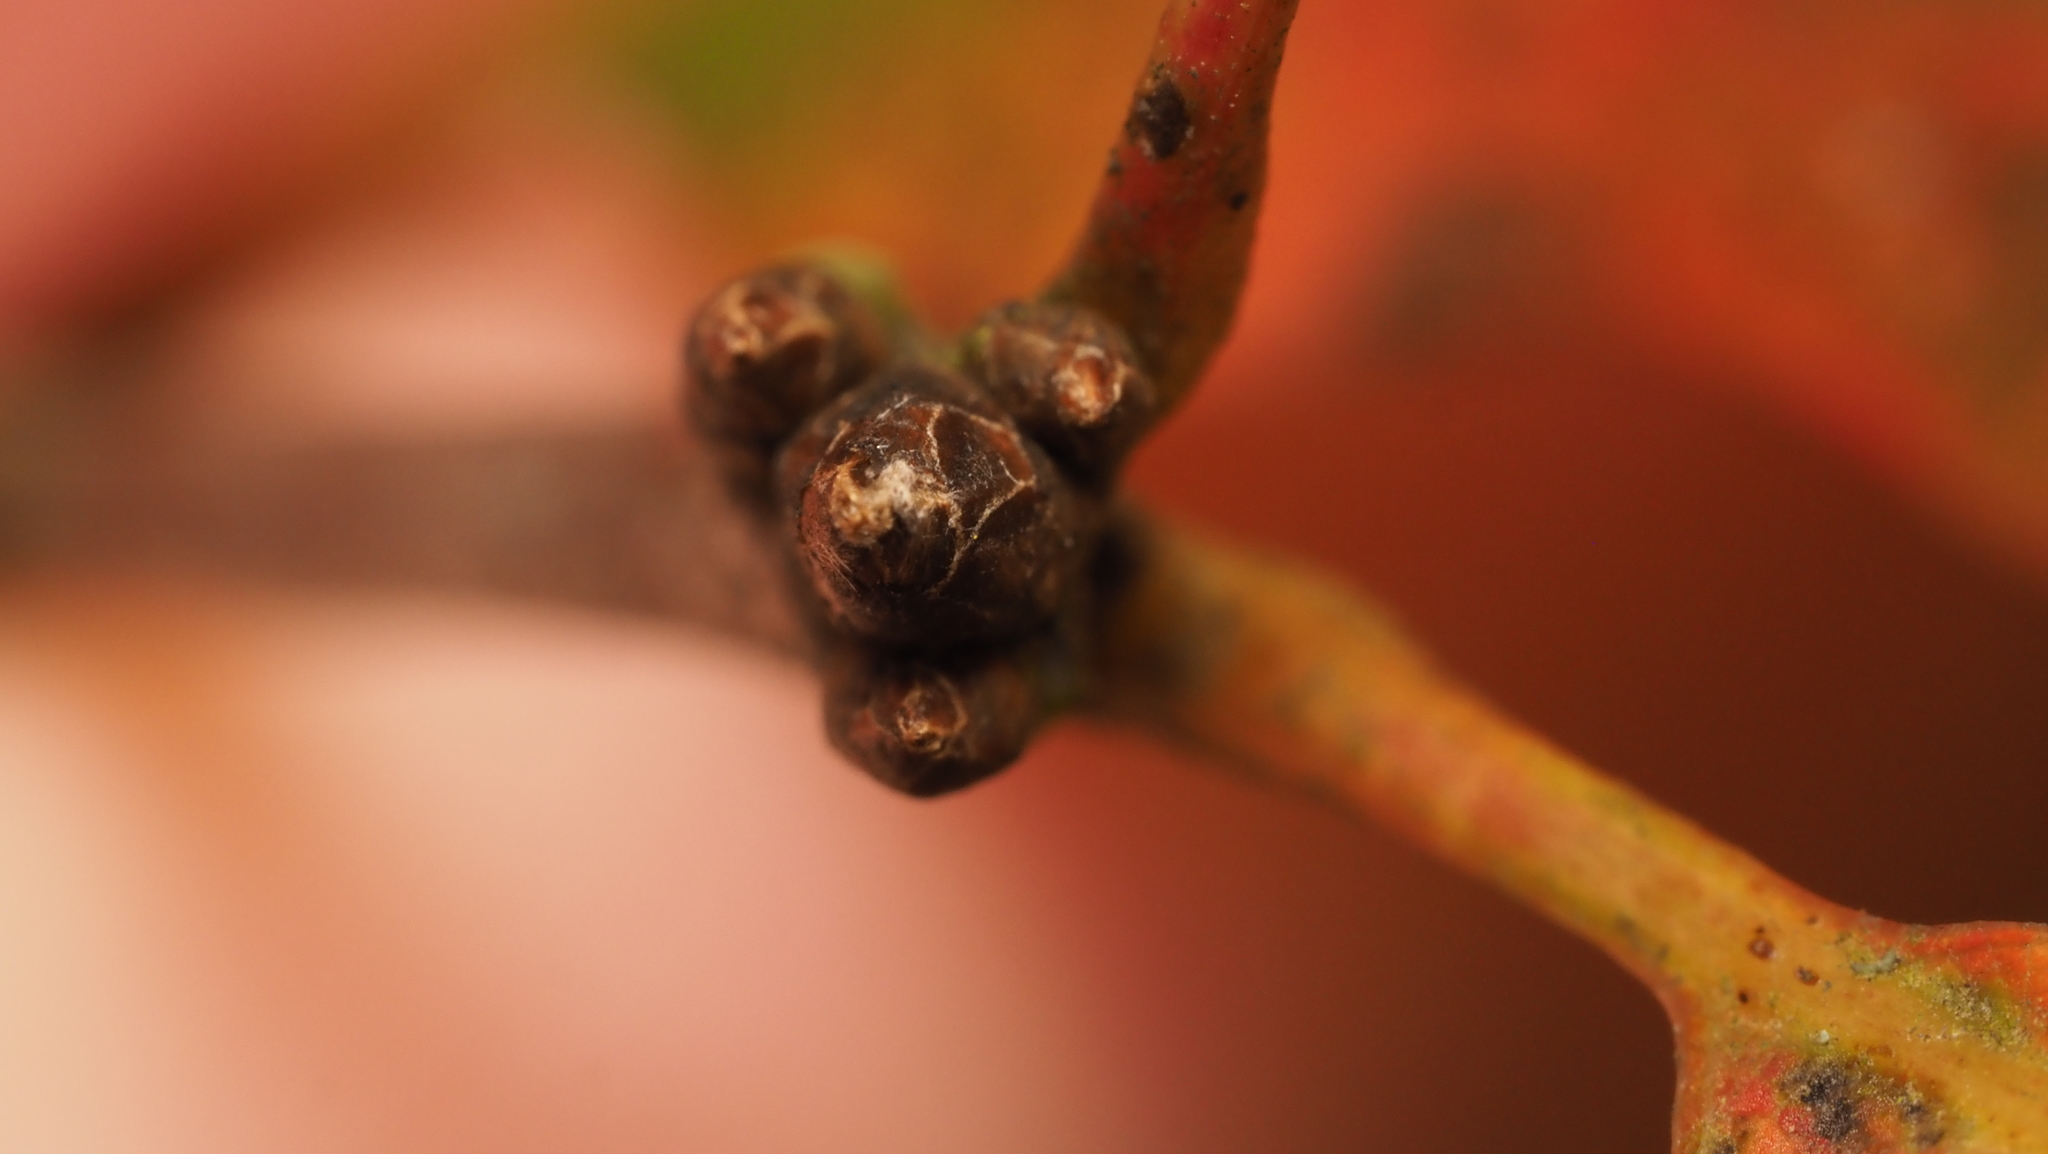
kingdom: Plantae
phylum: Tracheophyta
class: Magnoliopsida
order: Fagales
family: Fagaceae
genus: Quercus
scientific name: Quercus rubra
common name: Red oak
